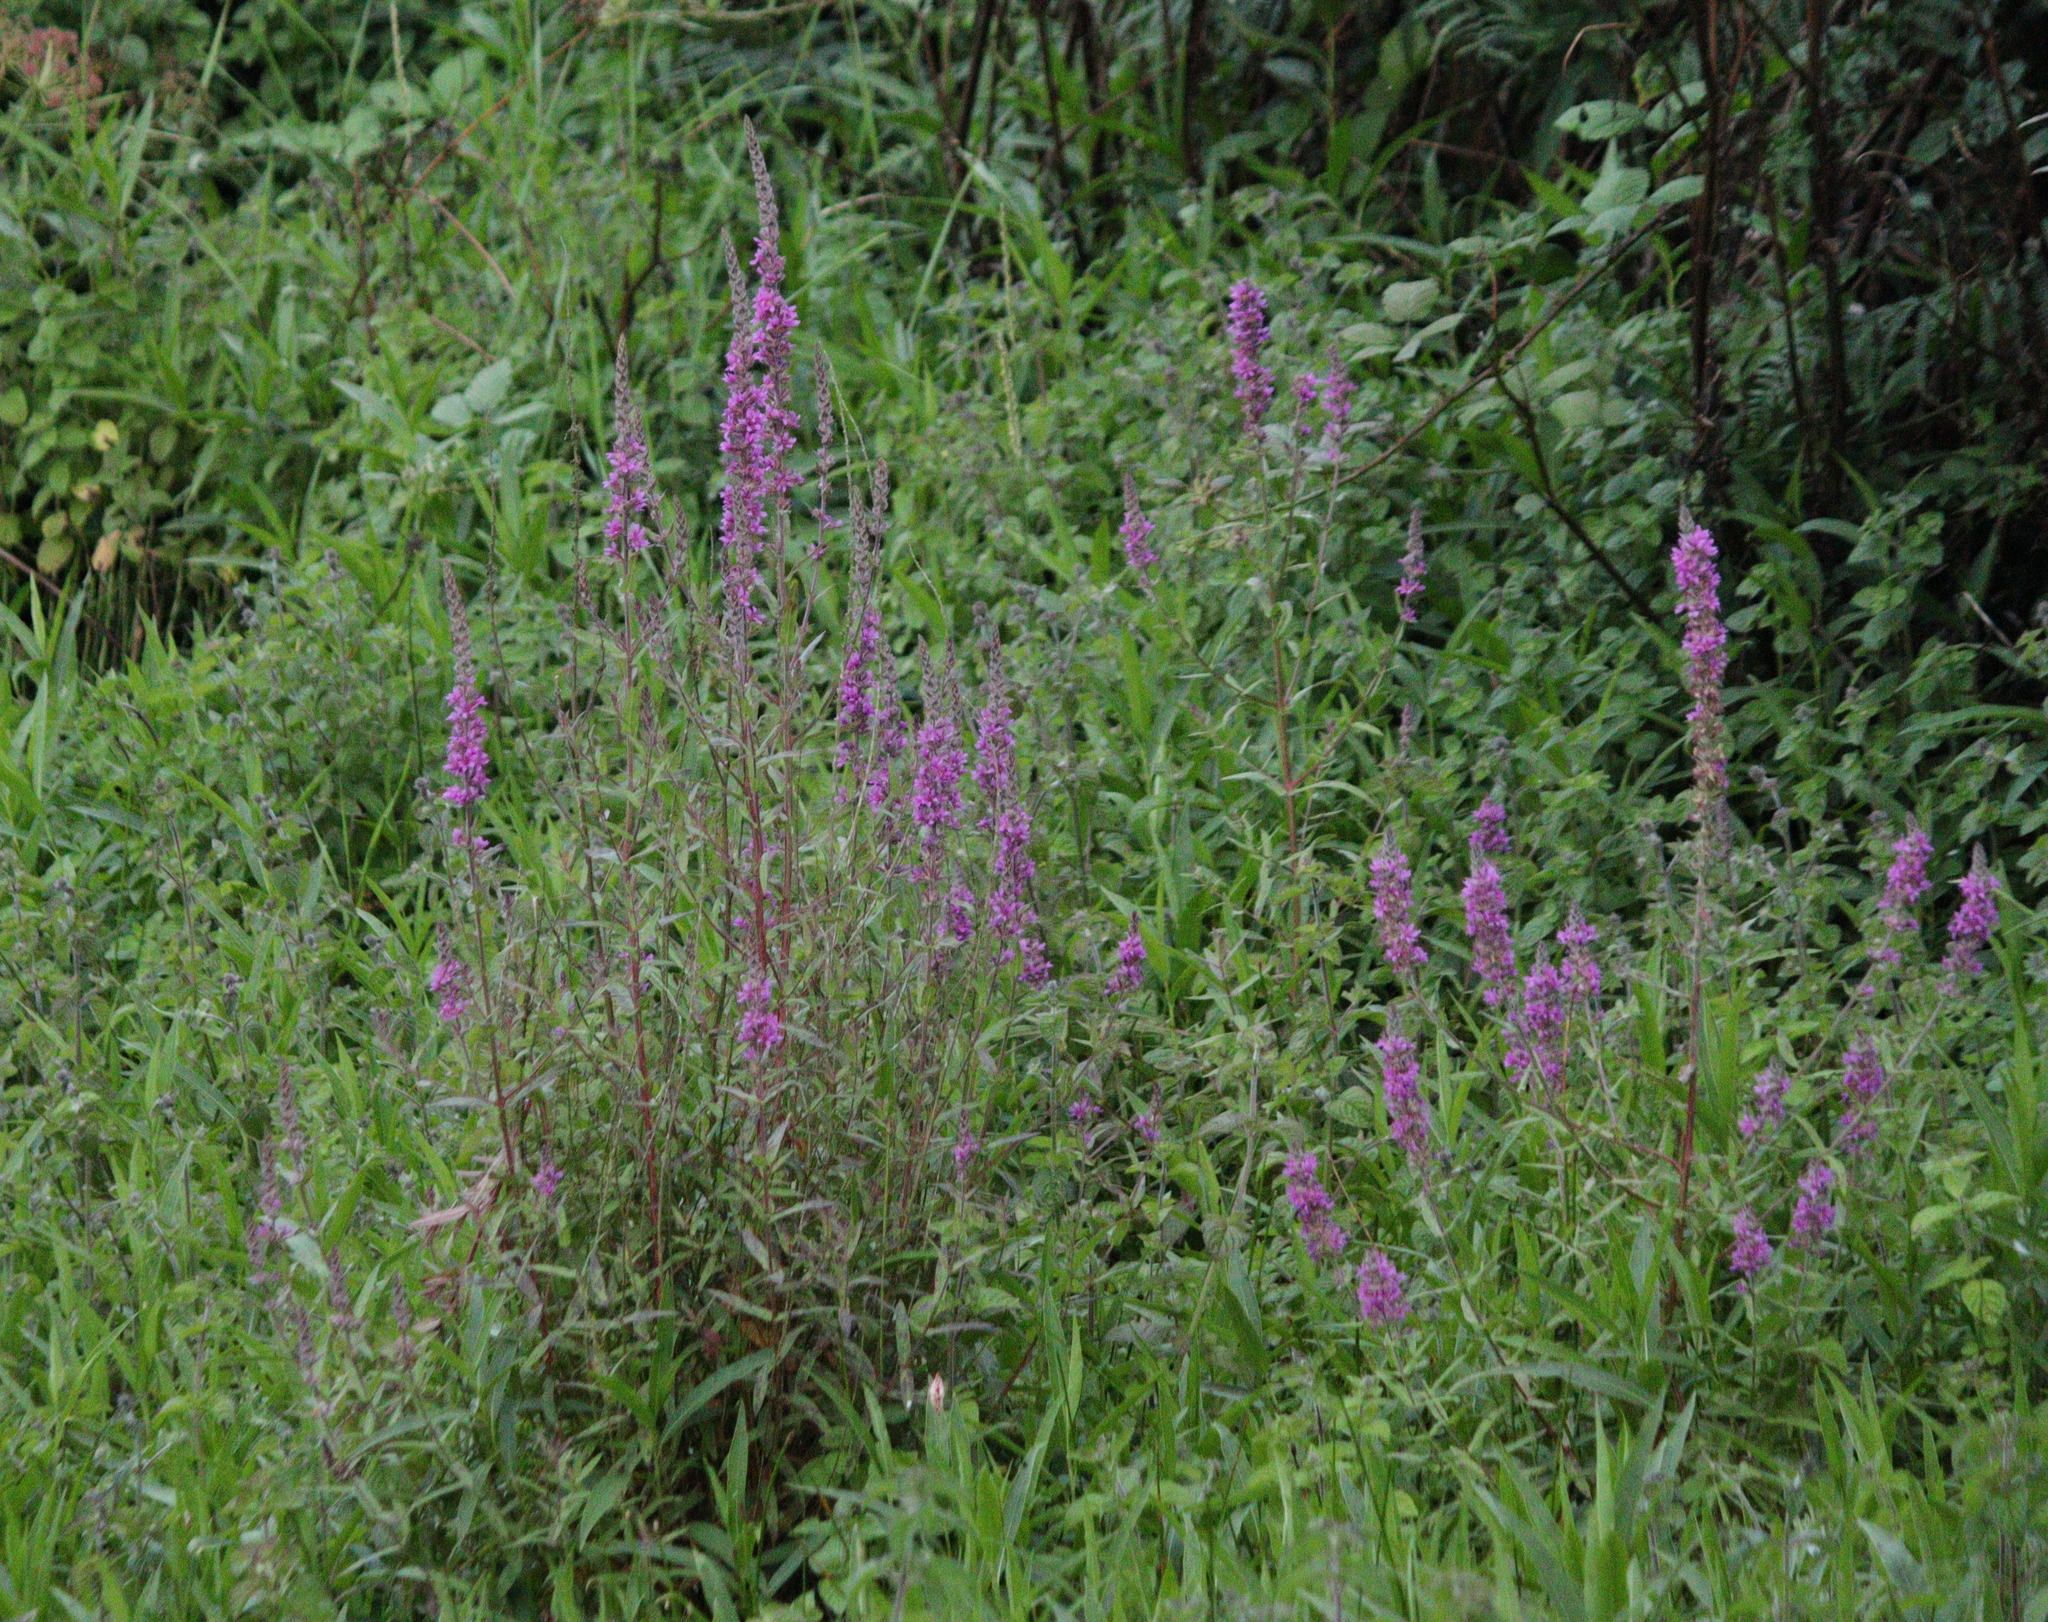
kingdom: Plantae
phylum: Tracheophyta
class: Magnoliopsida
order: Myrtales
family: Lythraceae
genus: Lythrum
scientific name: Lythrum salicaria
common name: Purple loosestrife
